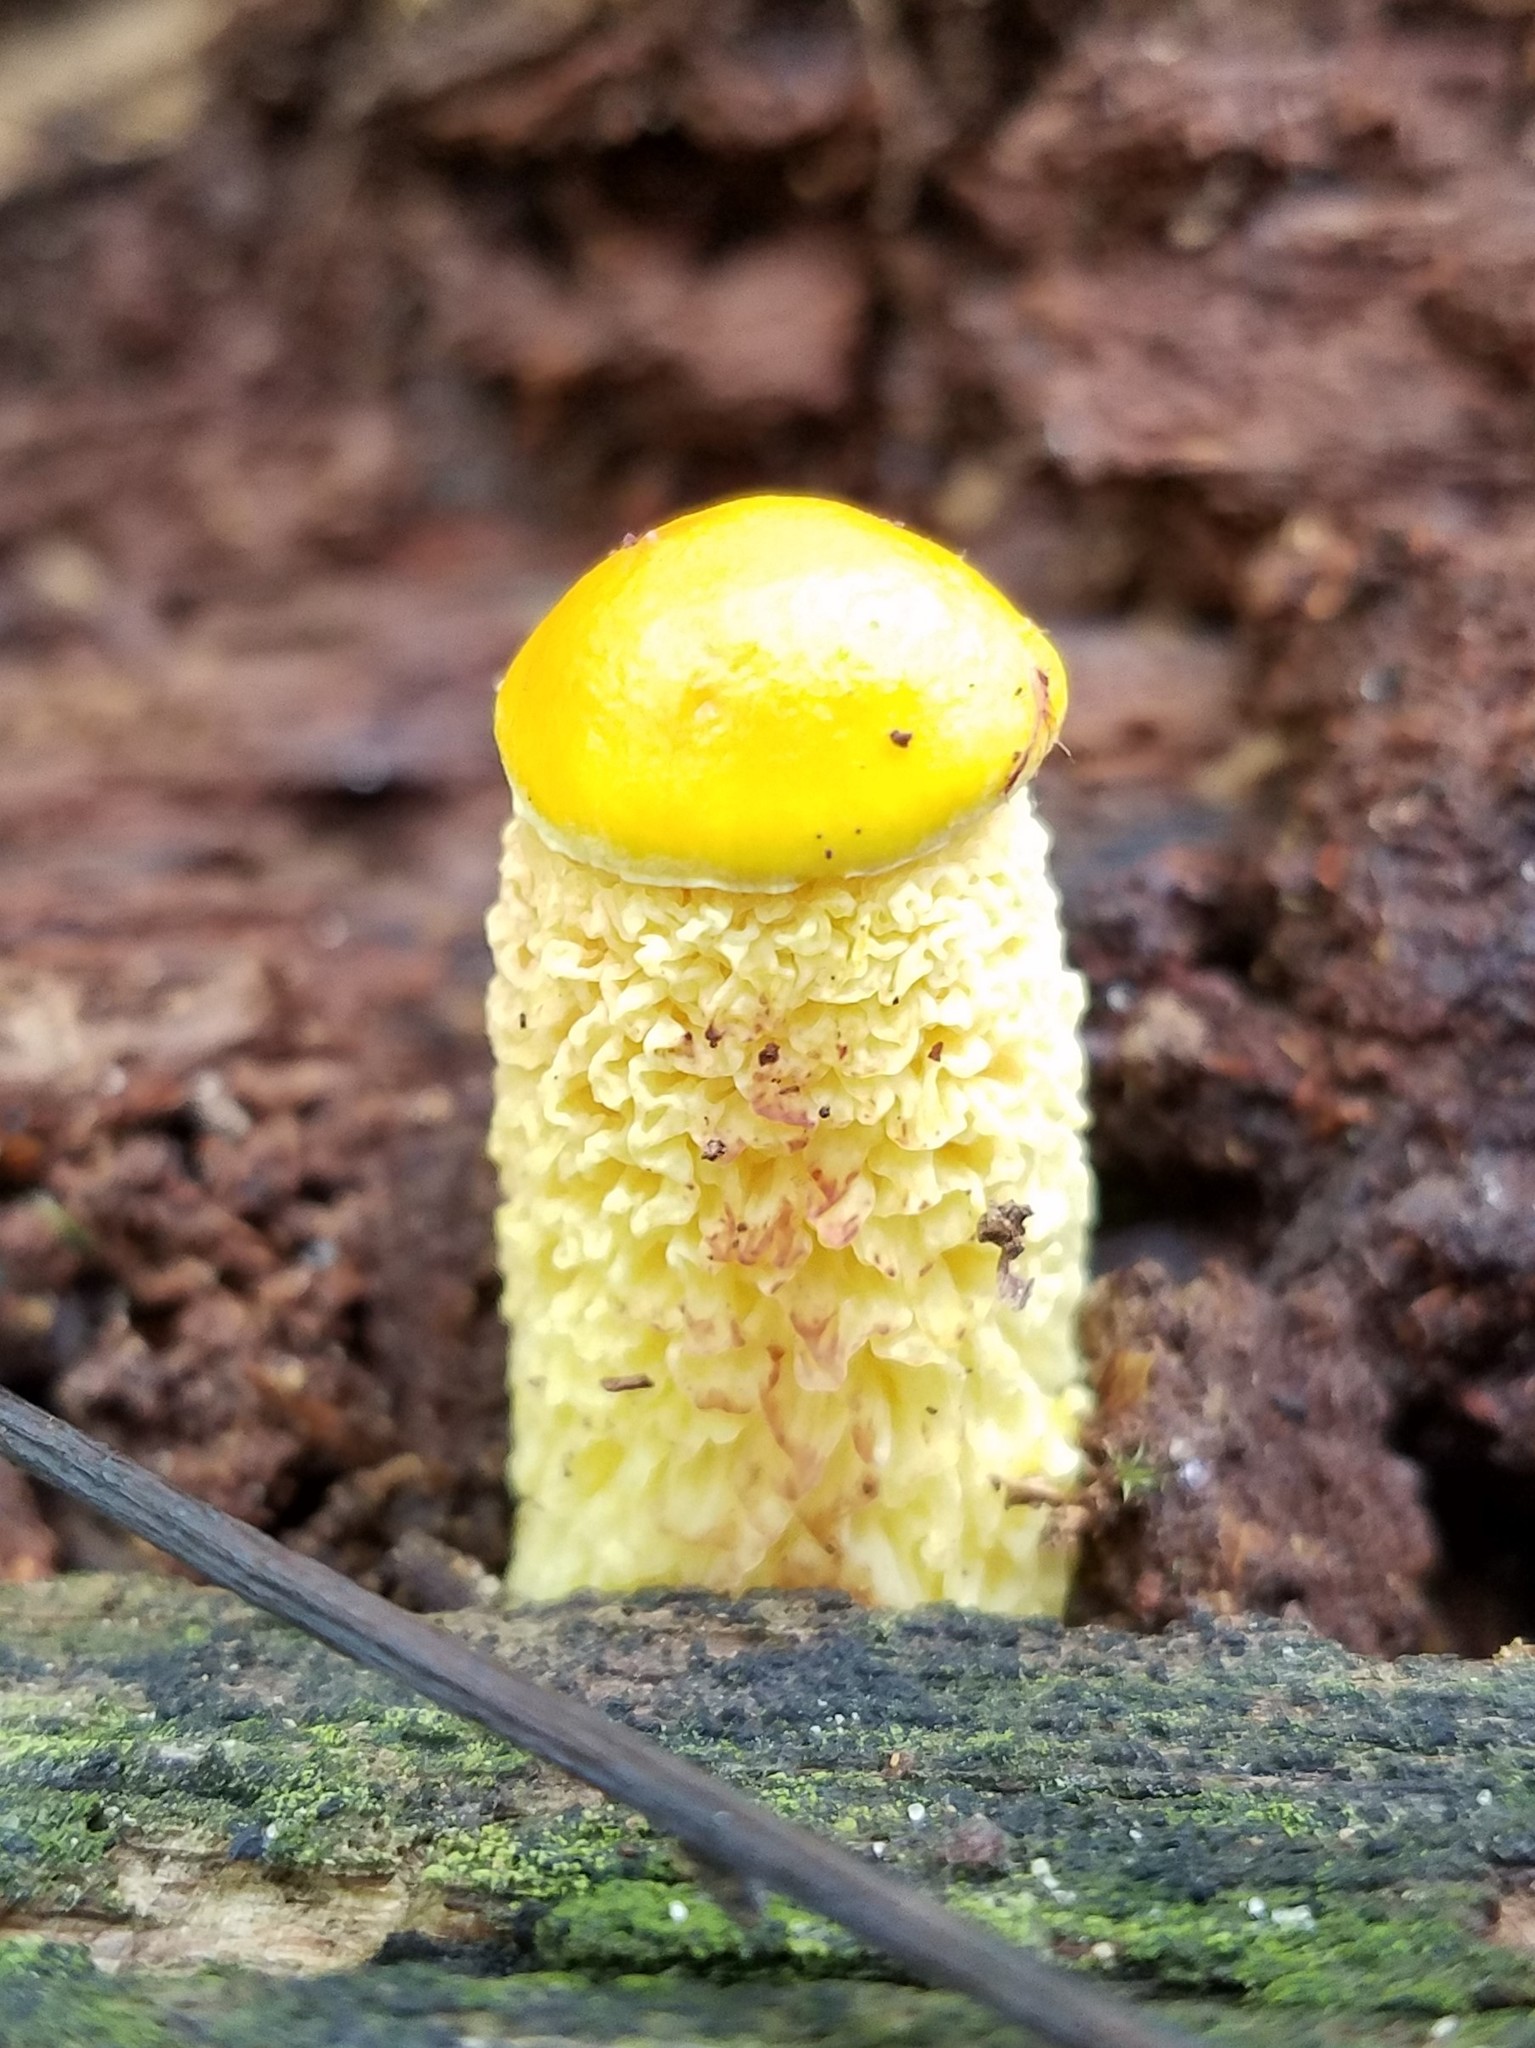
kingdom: Fungi
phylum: Basidiomycota
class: Agaricomycetes
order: Boletales
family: Boletaceae
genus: Aureoboletus
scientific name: Aureoboletus betula
